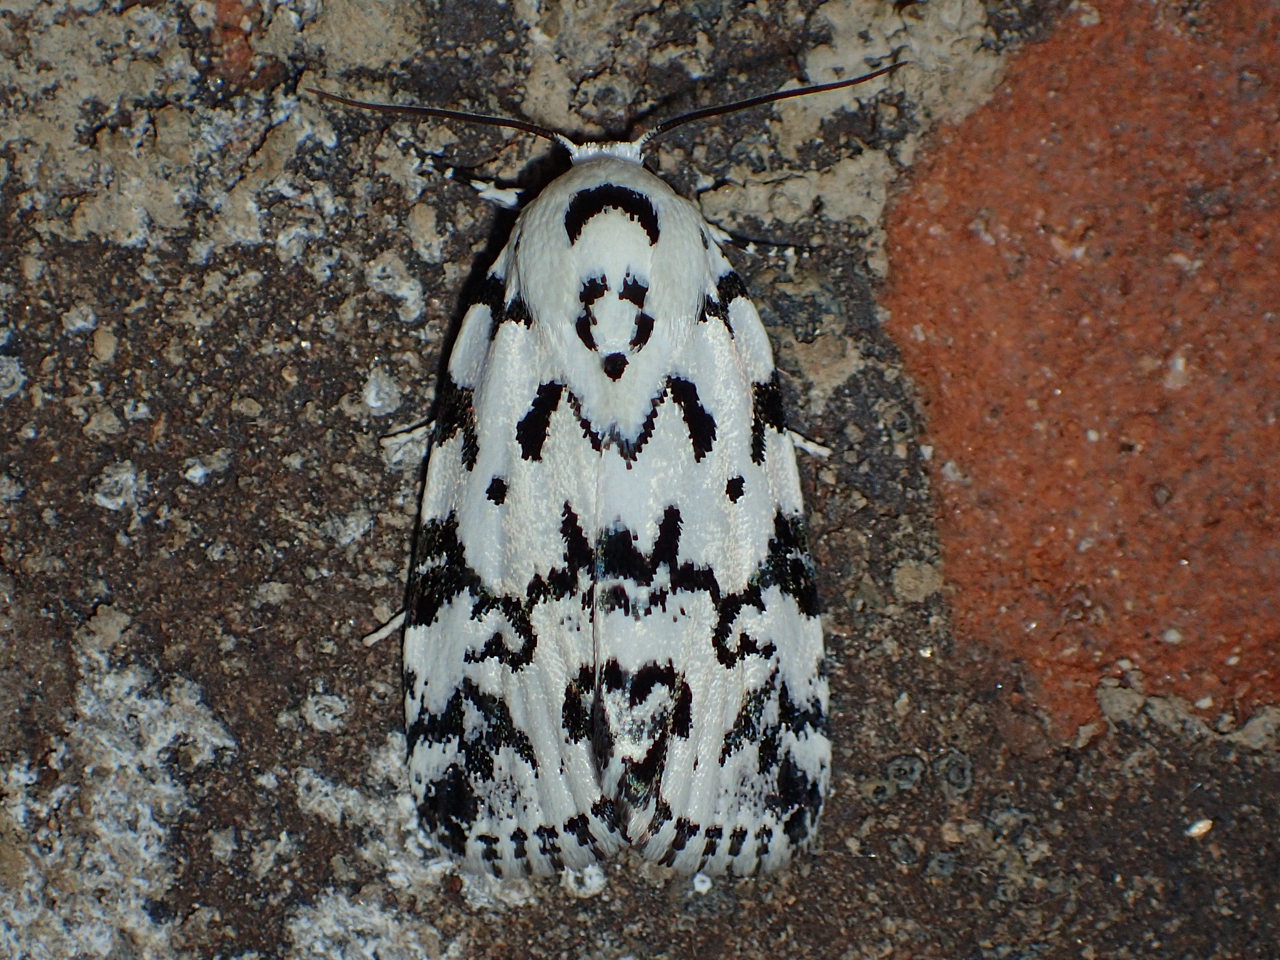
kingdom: Animalia
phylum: Arthropoda
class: Insecta
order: Lepidoptera
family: Noctuidae
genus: Polygrammate
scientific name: Polygrammate hebraeicum
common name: Hebrew moth
